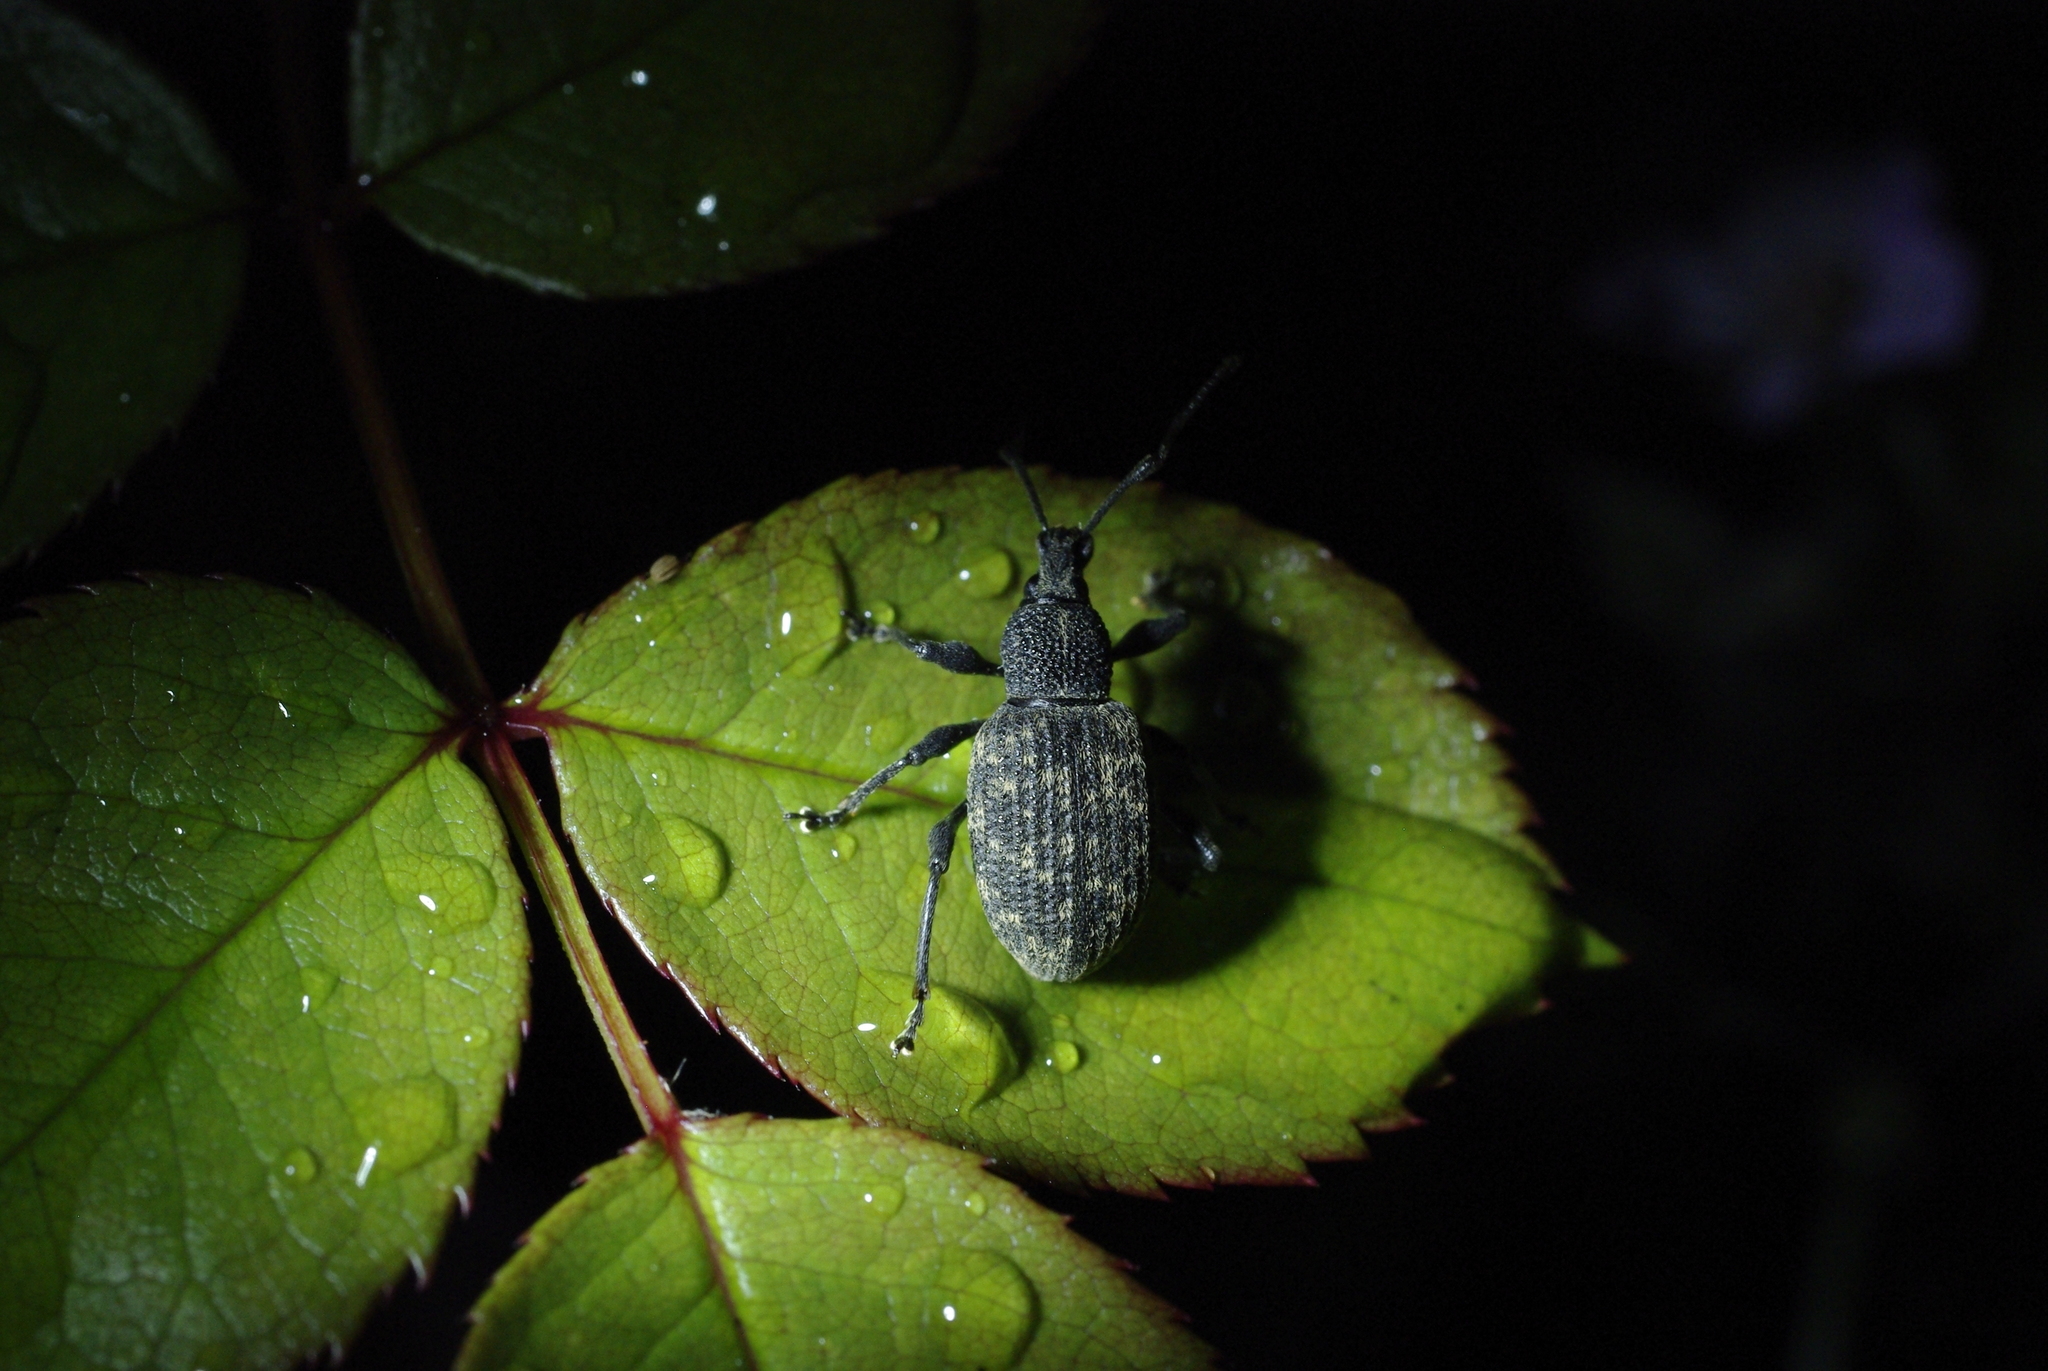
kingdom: Animalia
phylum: Arthropoda
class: Insecta
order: Coleoptera
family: Curculionidae
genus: Otiorhynchus
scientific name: Otiorhynchus sulcatus
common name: Black vine weevil
